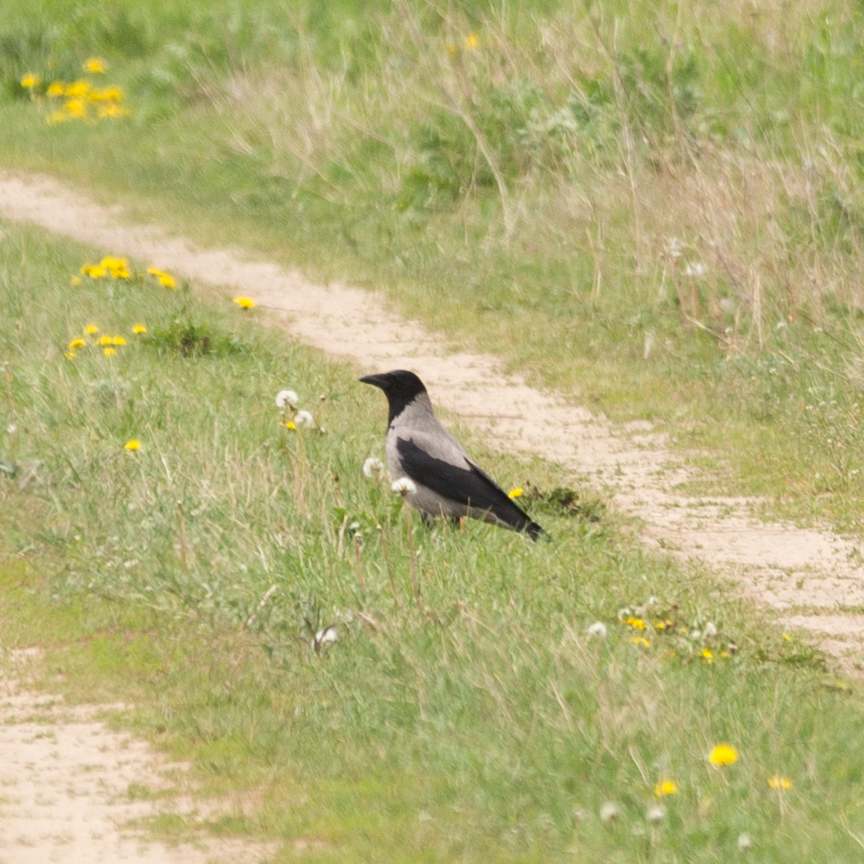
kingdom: Animalia
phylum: Chordata
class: Aves
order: Passeriformes
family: Corvidae
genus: Corvus
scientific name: Corvus cornix
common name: Hooded crow
